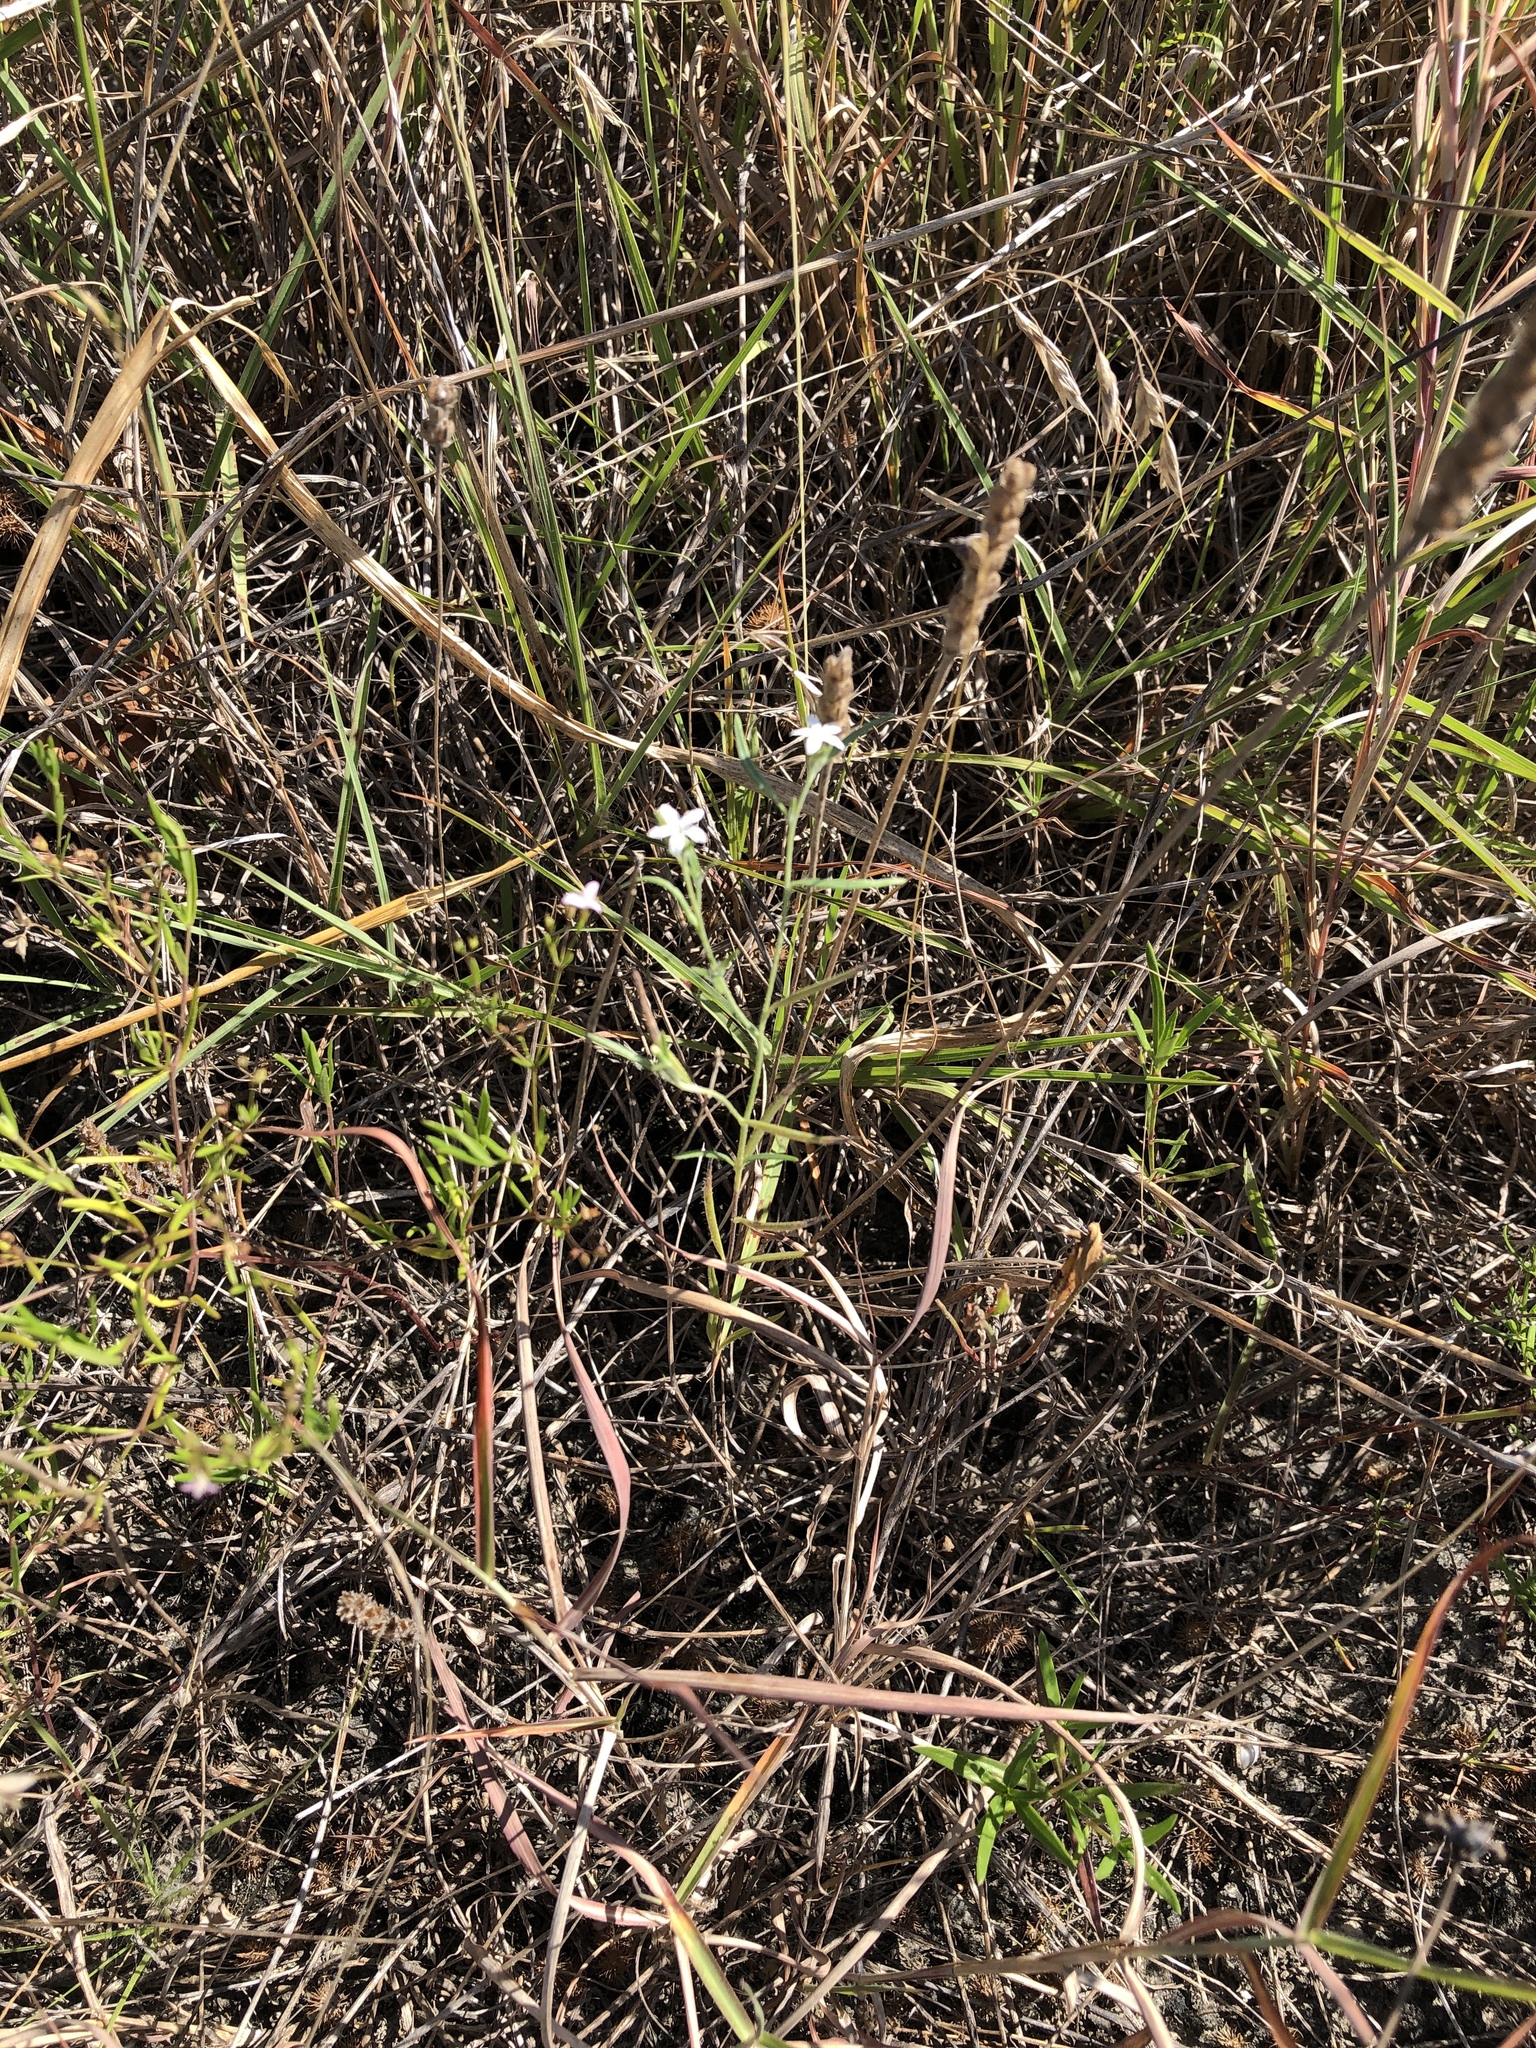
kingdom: Plantae
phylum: Tracheophyta
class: Magnoliopsida
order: Boraginales
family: Heliotropiaceae
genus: Euploca
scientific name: Euploca tenella
